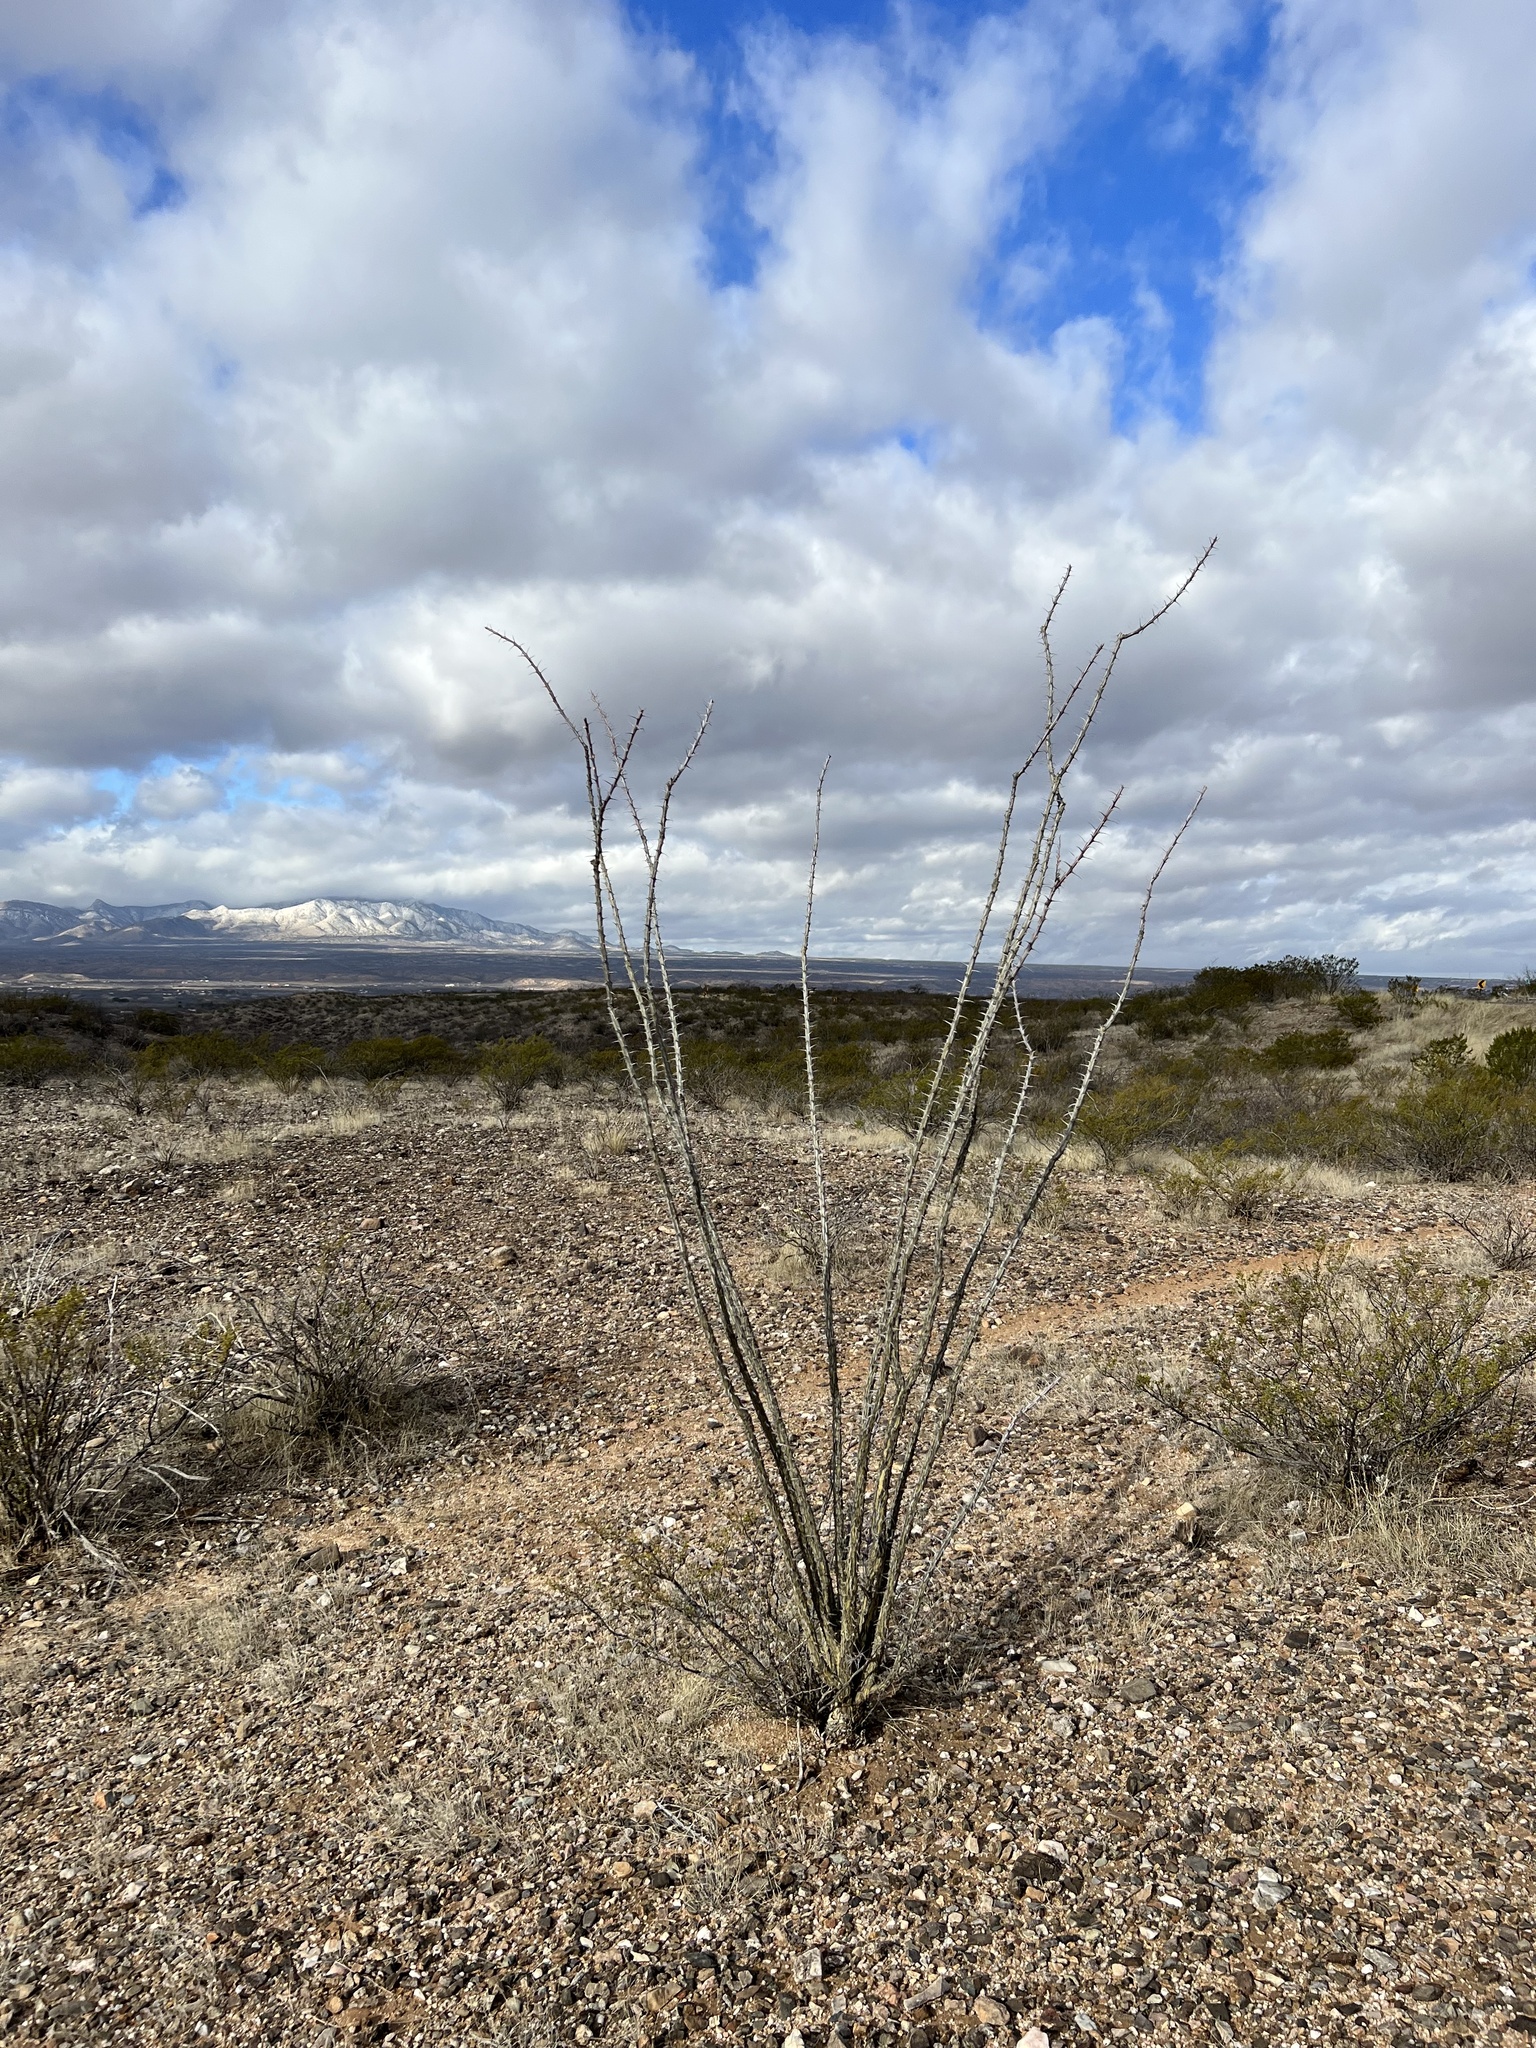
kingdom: Plantae
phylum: Tracheophyta
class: Magnoliopsida
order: Ericales
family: Fouquieriaceae
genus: Fouquieria
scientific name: Fouquieria splendens
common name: Vine-cactus
